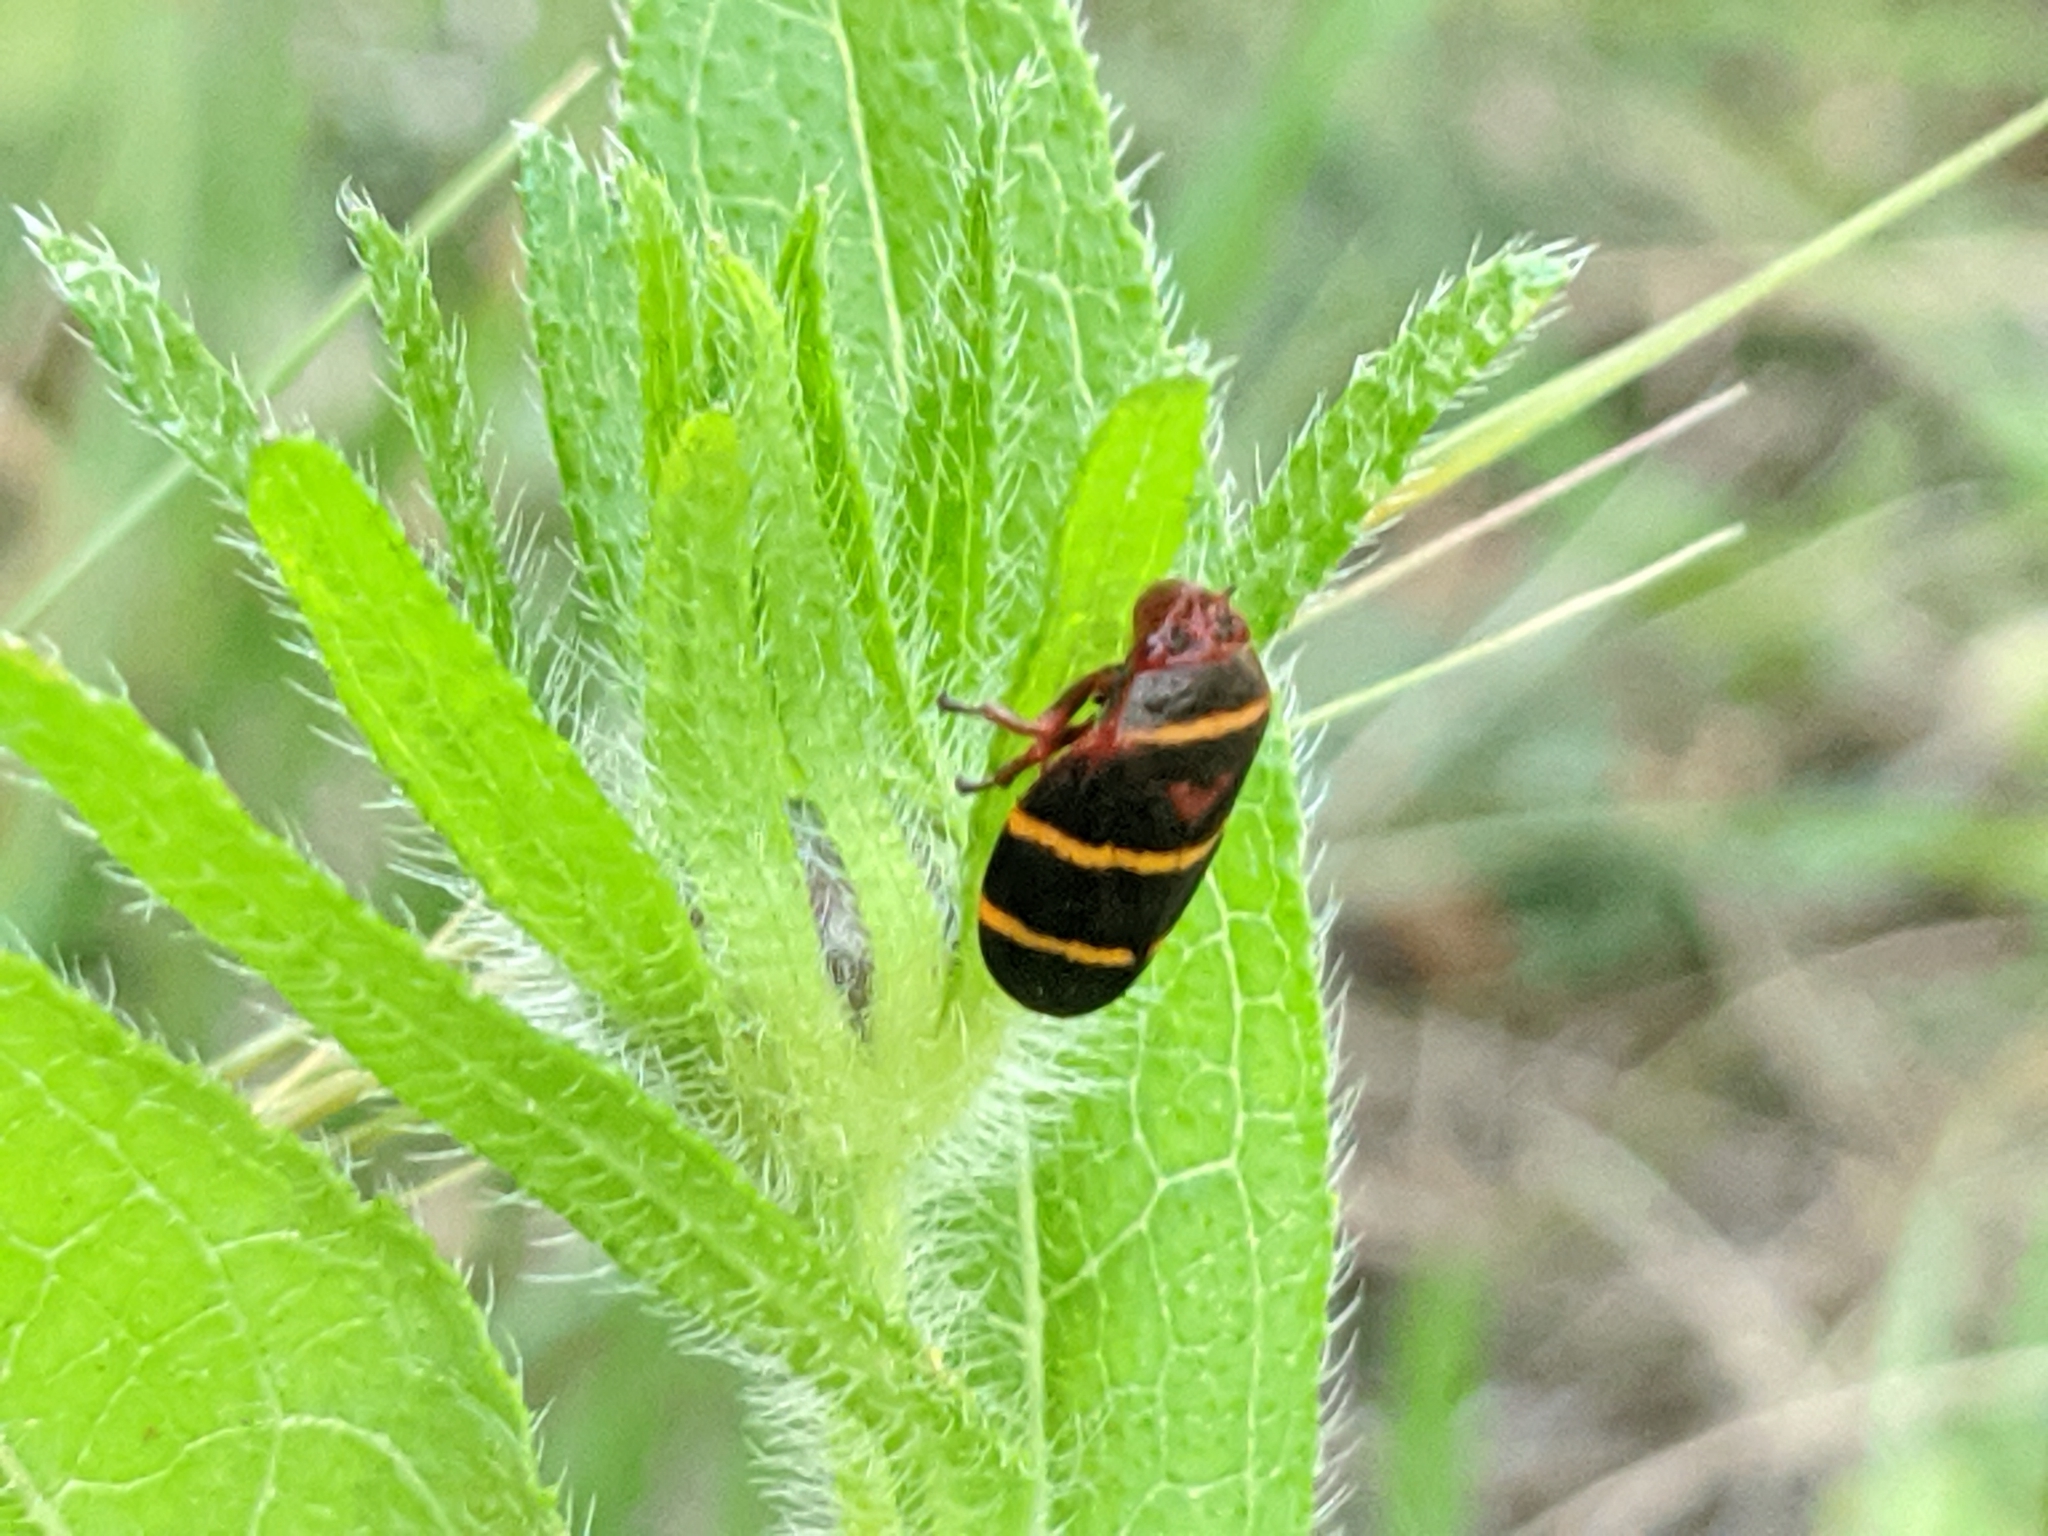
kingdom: Animalia
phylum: Arthropoda
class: Insecta
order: Hemiptera
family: Cercopidae
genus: Prosapia
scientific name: Prosapia bicincta
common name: Twolined spittlebug
